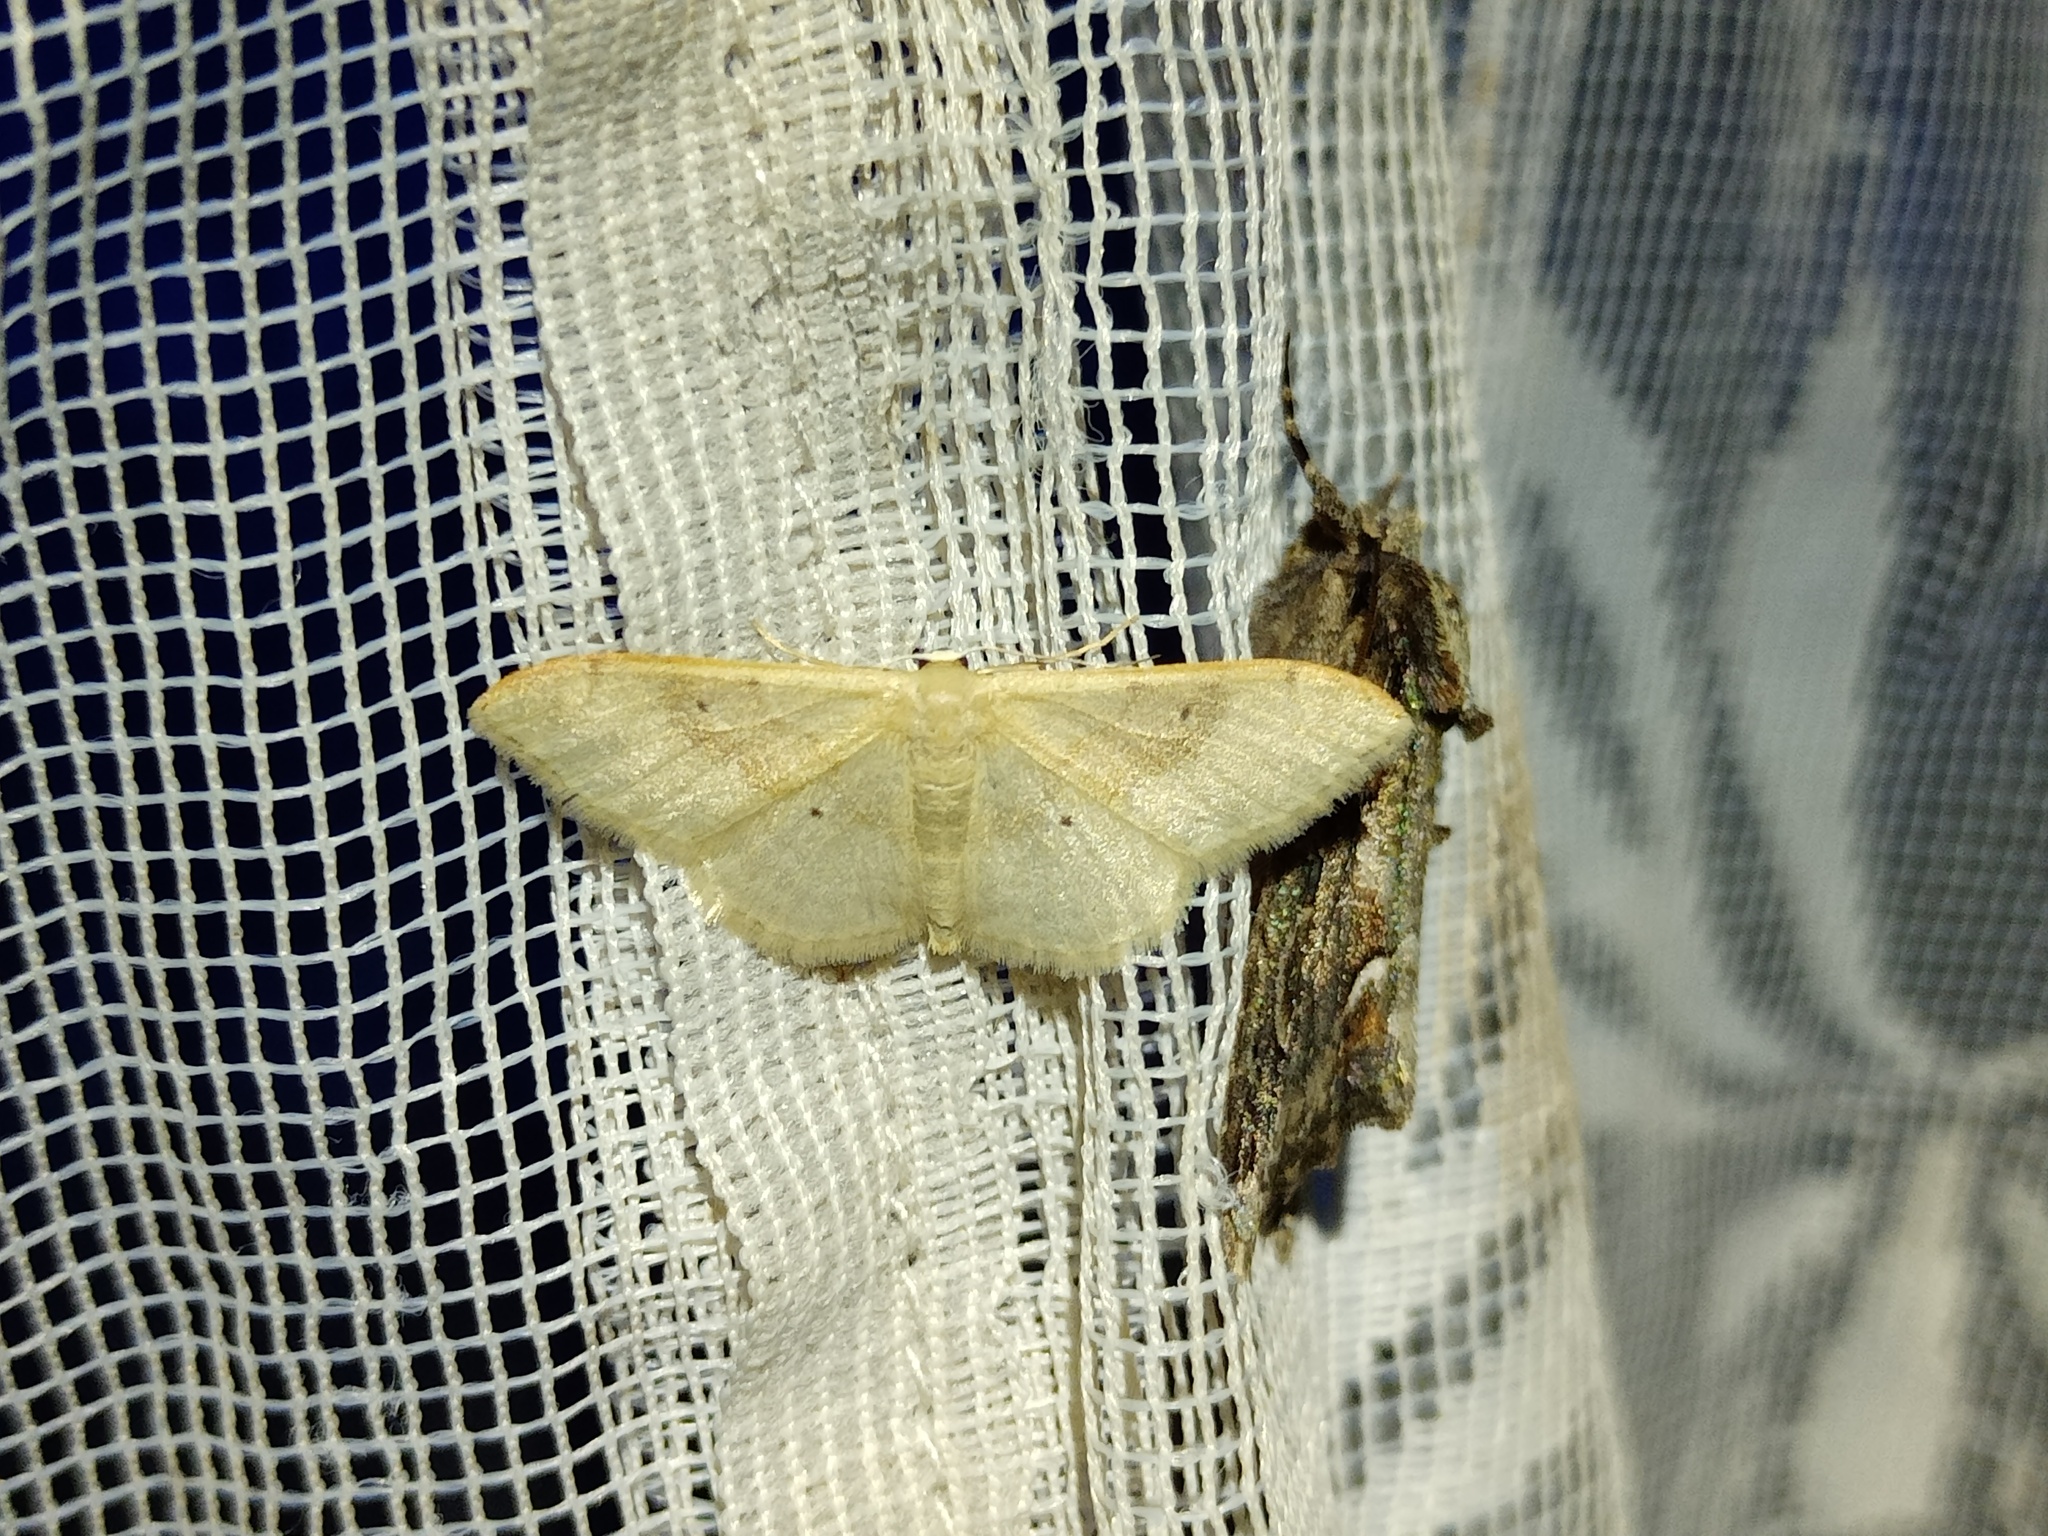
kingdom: Animalia
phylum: Arthropoda
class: Insecta
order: Lepidoptera
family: Geometridae
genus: Idaea
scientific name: Idaea degeneraria
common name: Portland ribbon wave
